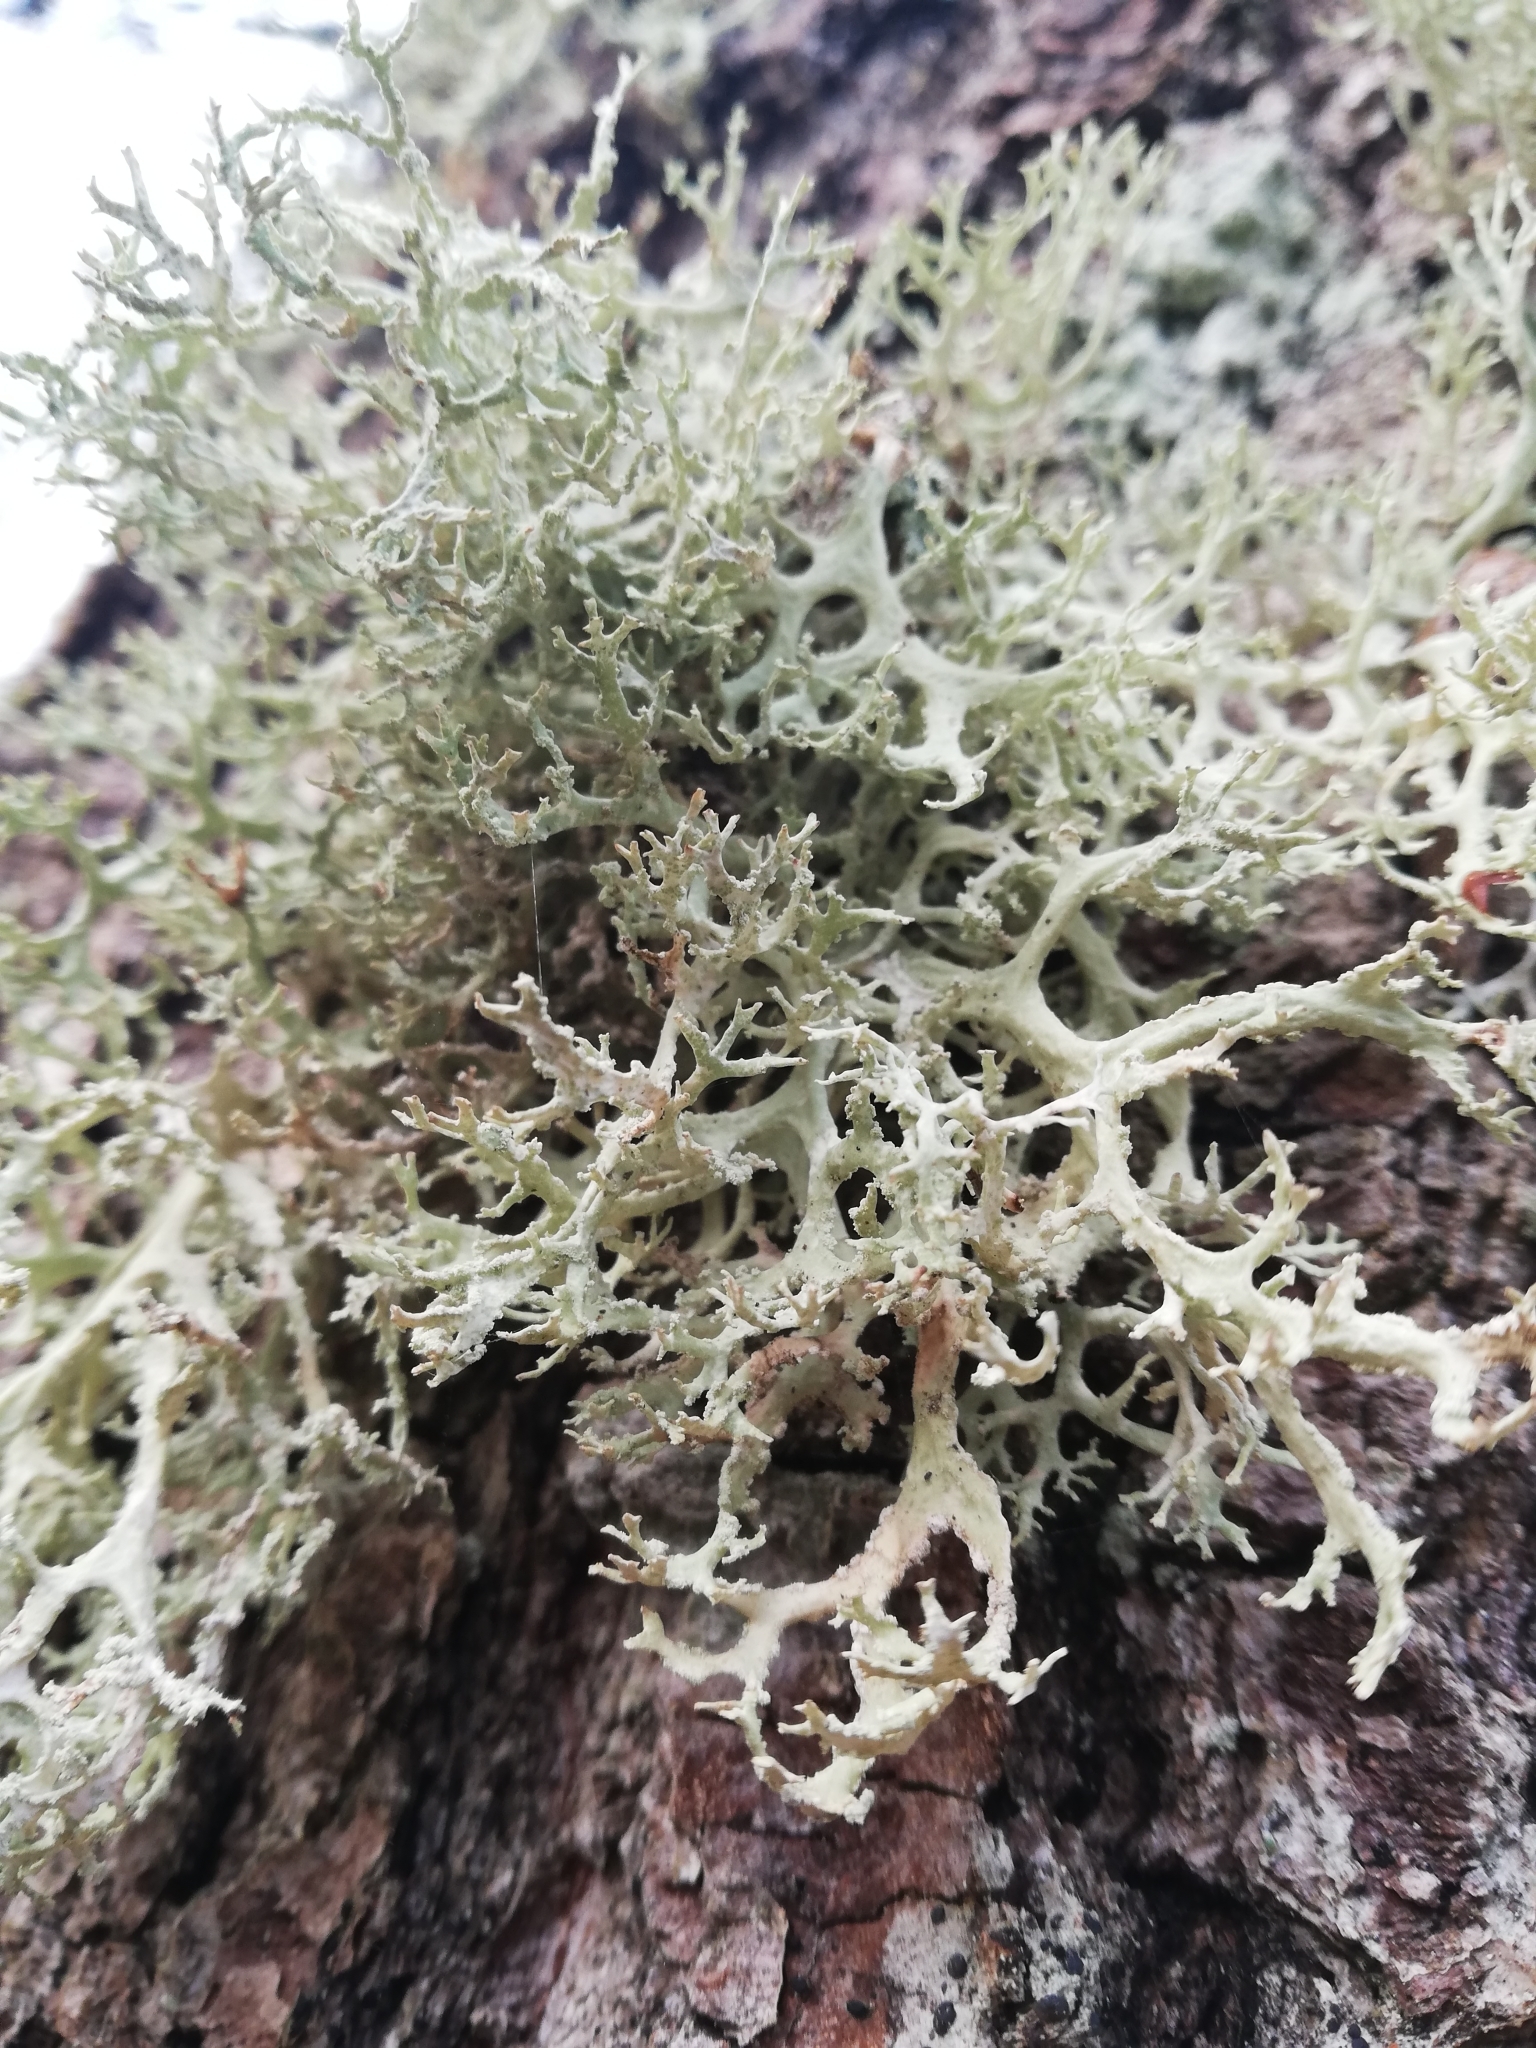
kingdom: Fungi
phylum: Ascomycota
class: Lecanoromycetes
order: Lecanorales
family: Parmeliaceae
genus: Evernia
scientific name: Evernia prunastri
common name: Oak moss
